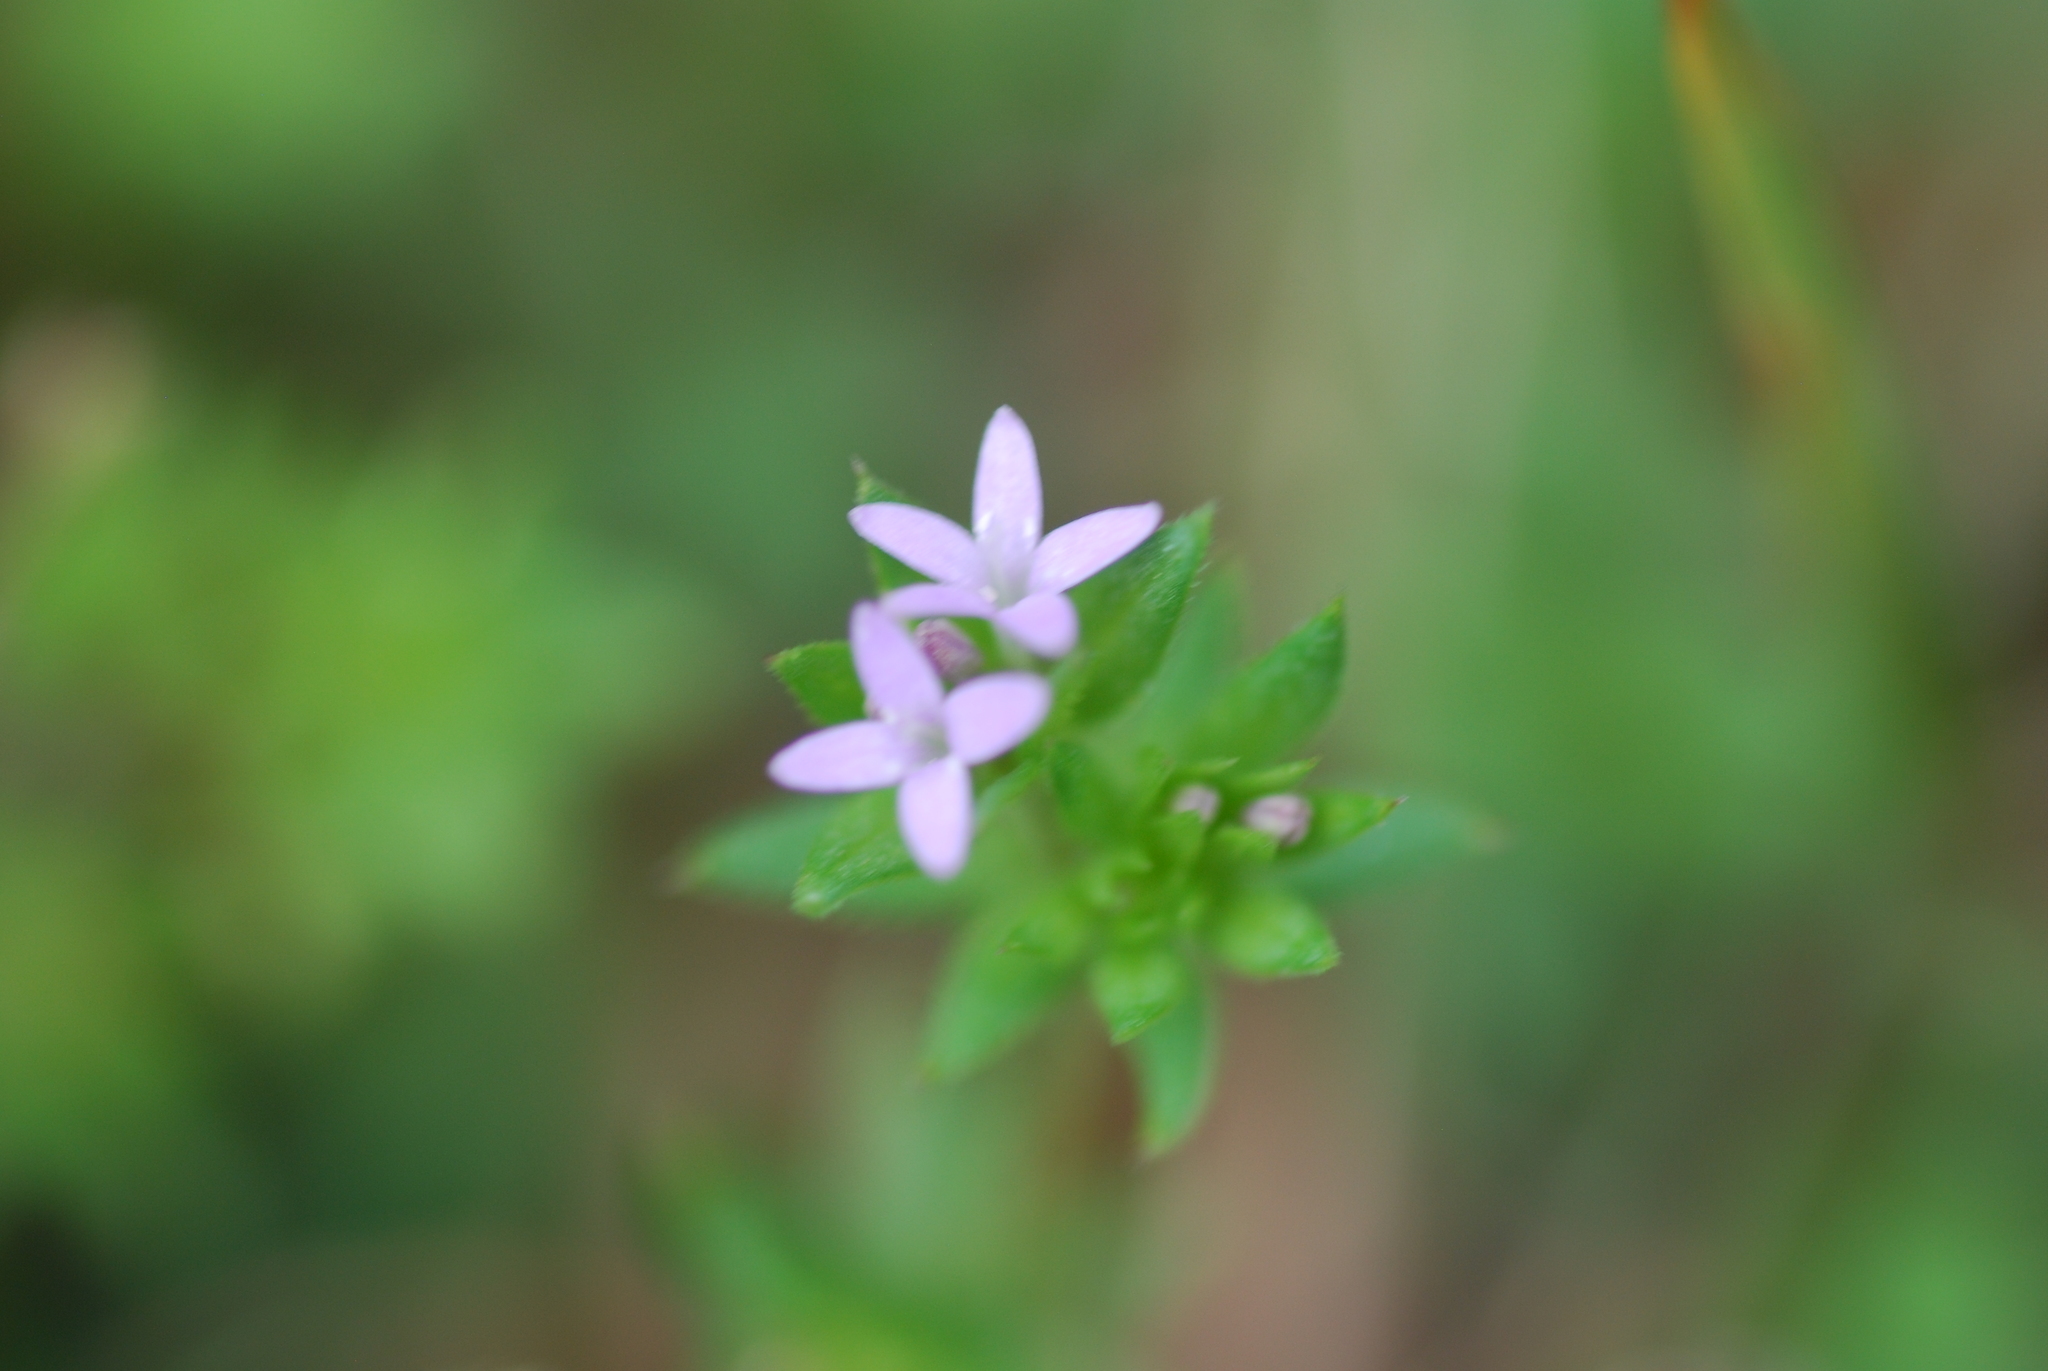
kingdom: Plantae
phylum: Tracheophyta
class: Magnoliopsida
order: Gentianales
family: Rubiaceae
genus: Sherardia
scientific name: Sherardia arvensis
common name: Field madder
